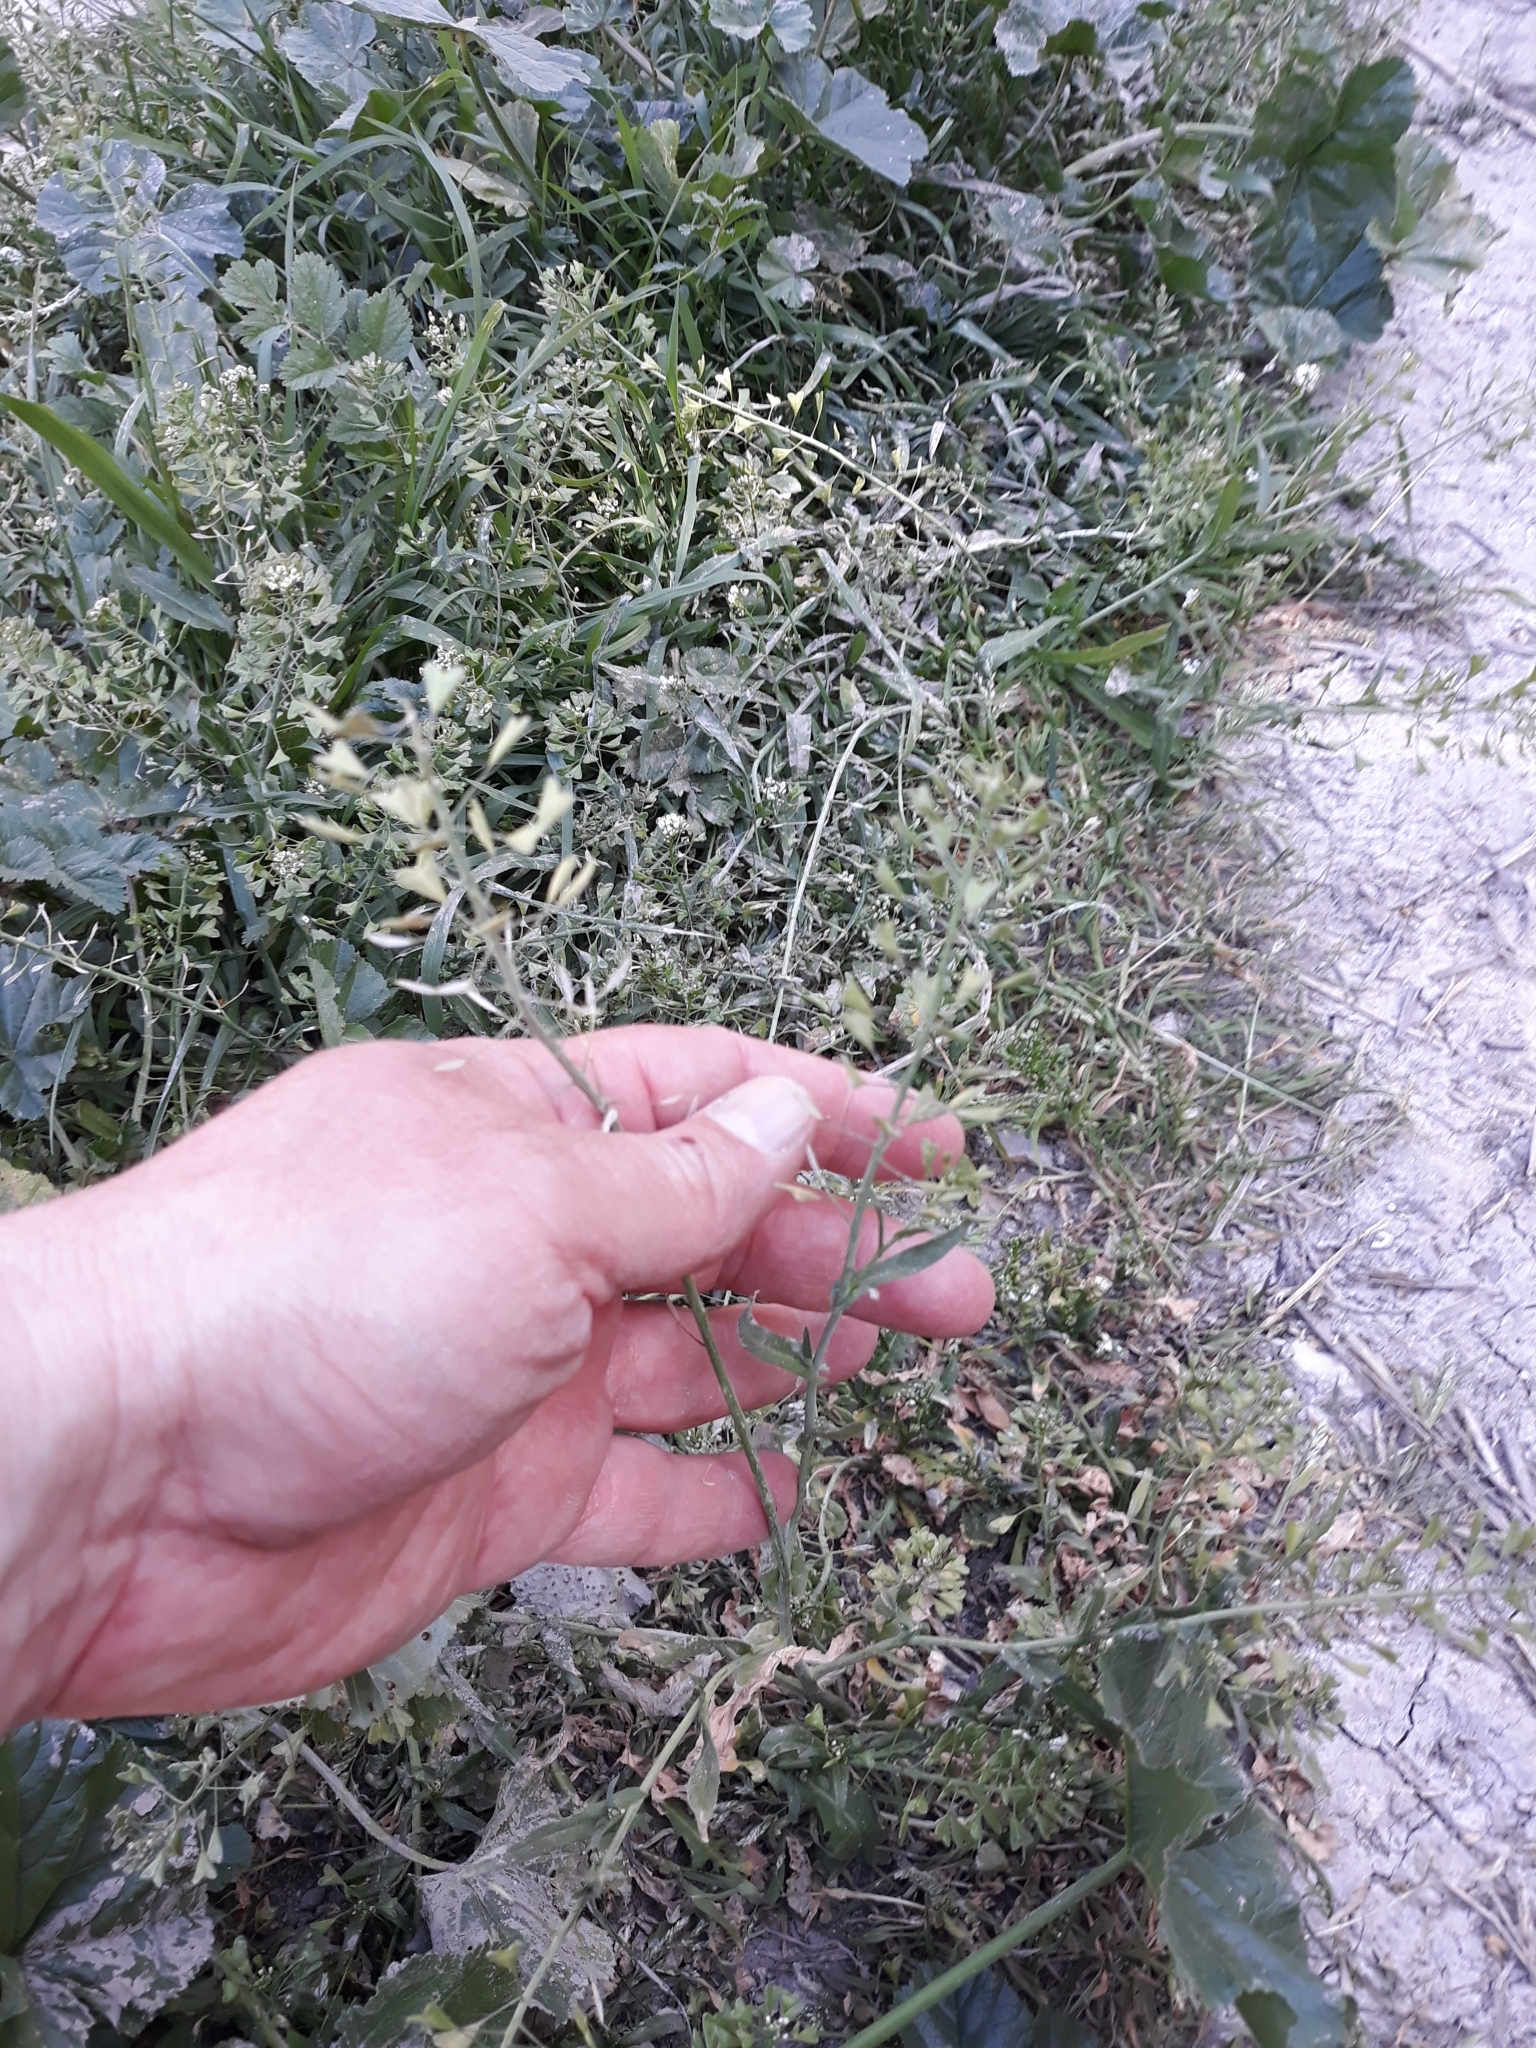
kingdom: Plantae
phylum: Tracheophyta
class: Magnoliopsida
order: Brassicales
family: Brassicaceae
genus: Capsella
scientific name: Capsella bursa-pastoris
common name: Shepherd's purse
